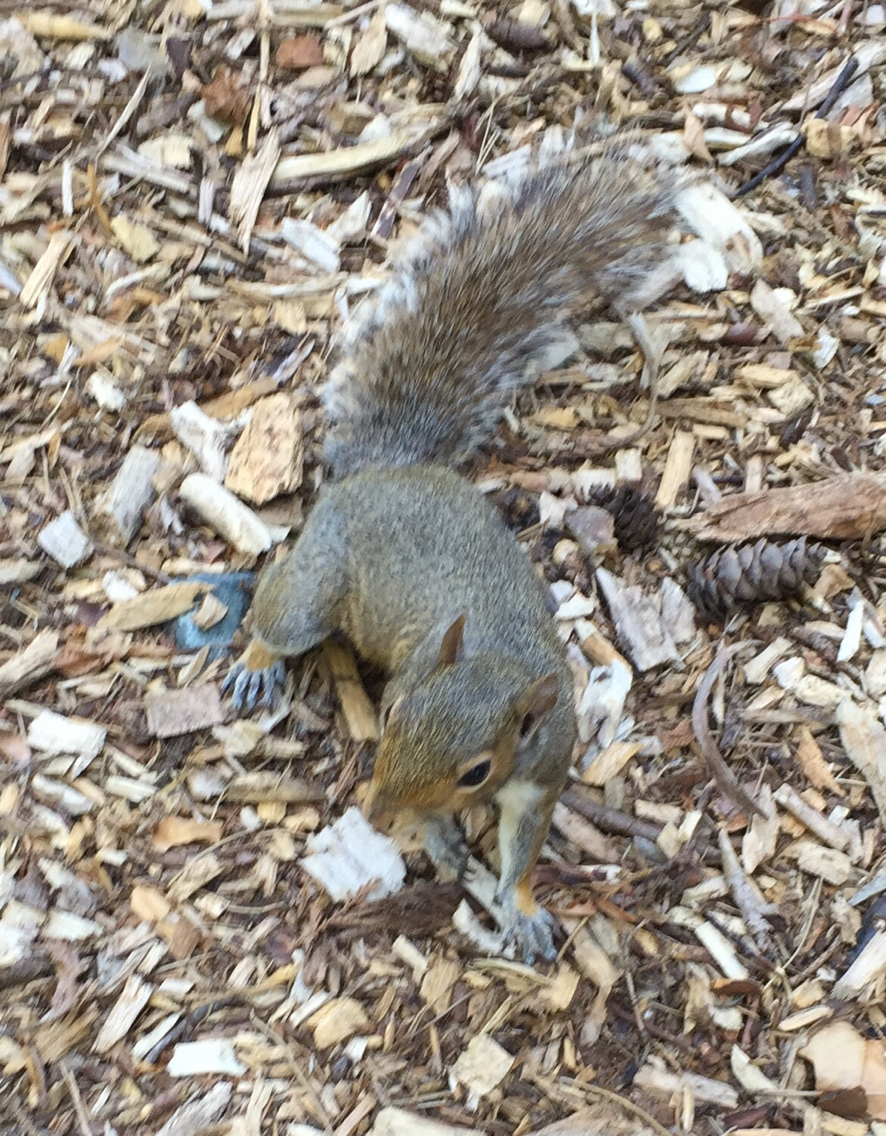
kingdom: Animalia
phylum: Chordata
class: Mammalia
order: Rodentia
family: Sciuridae
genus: Sciurus
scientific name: Sciurus carolinensis
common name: Eastern gray squirrel
